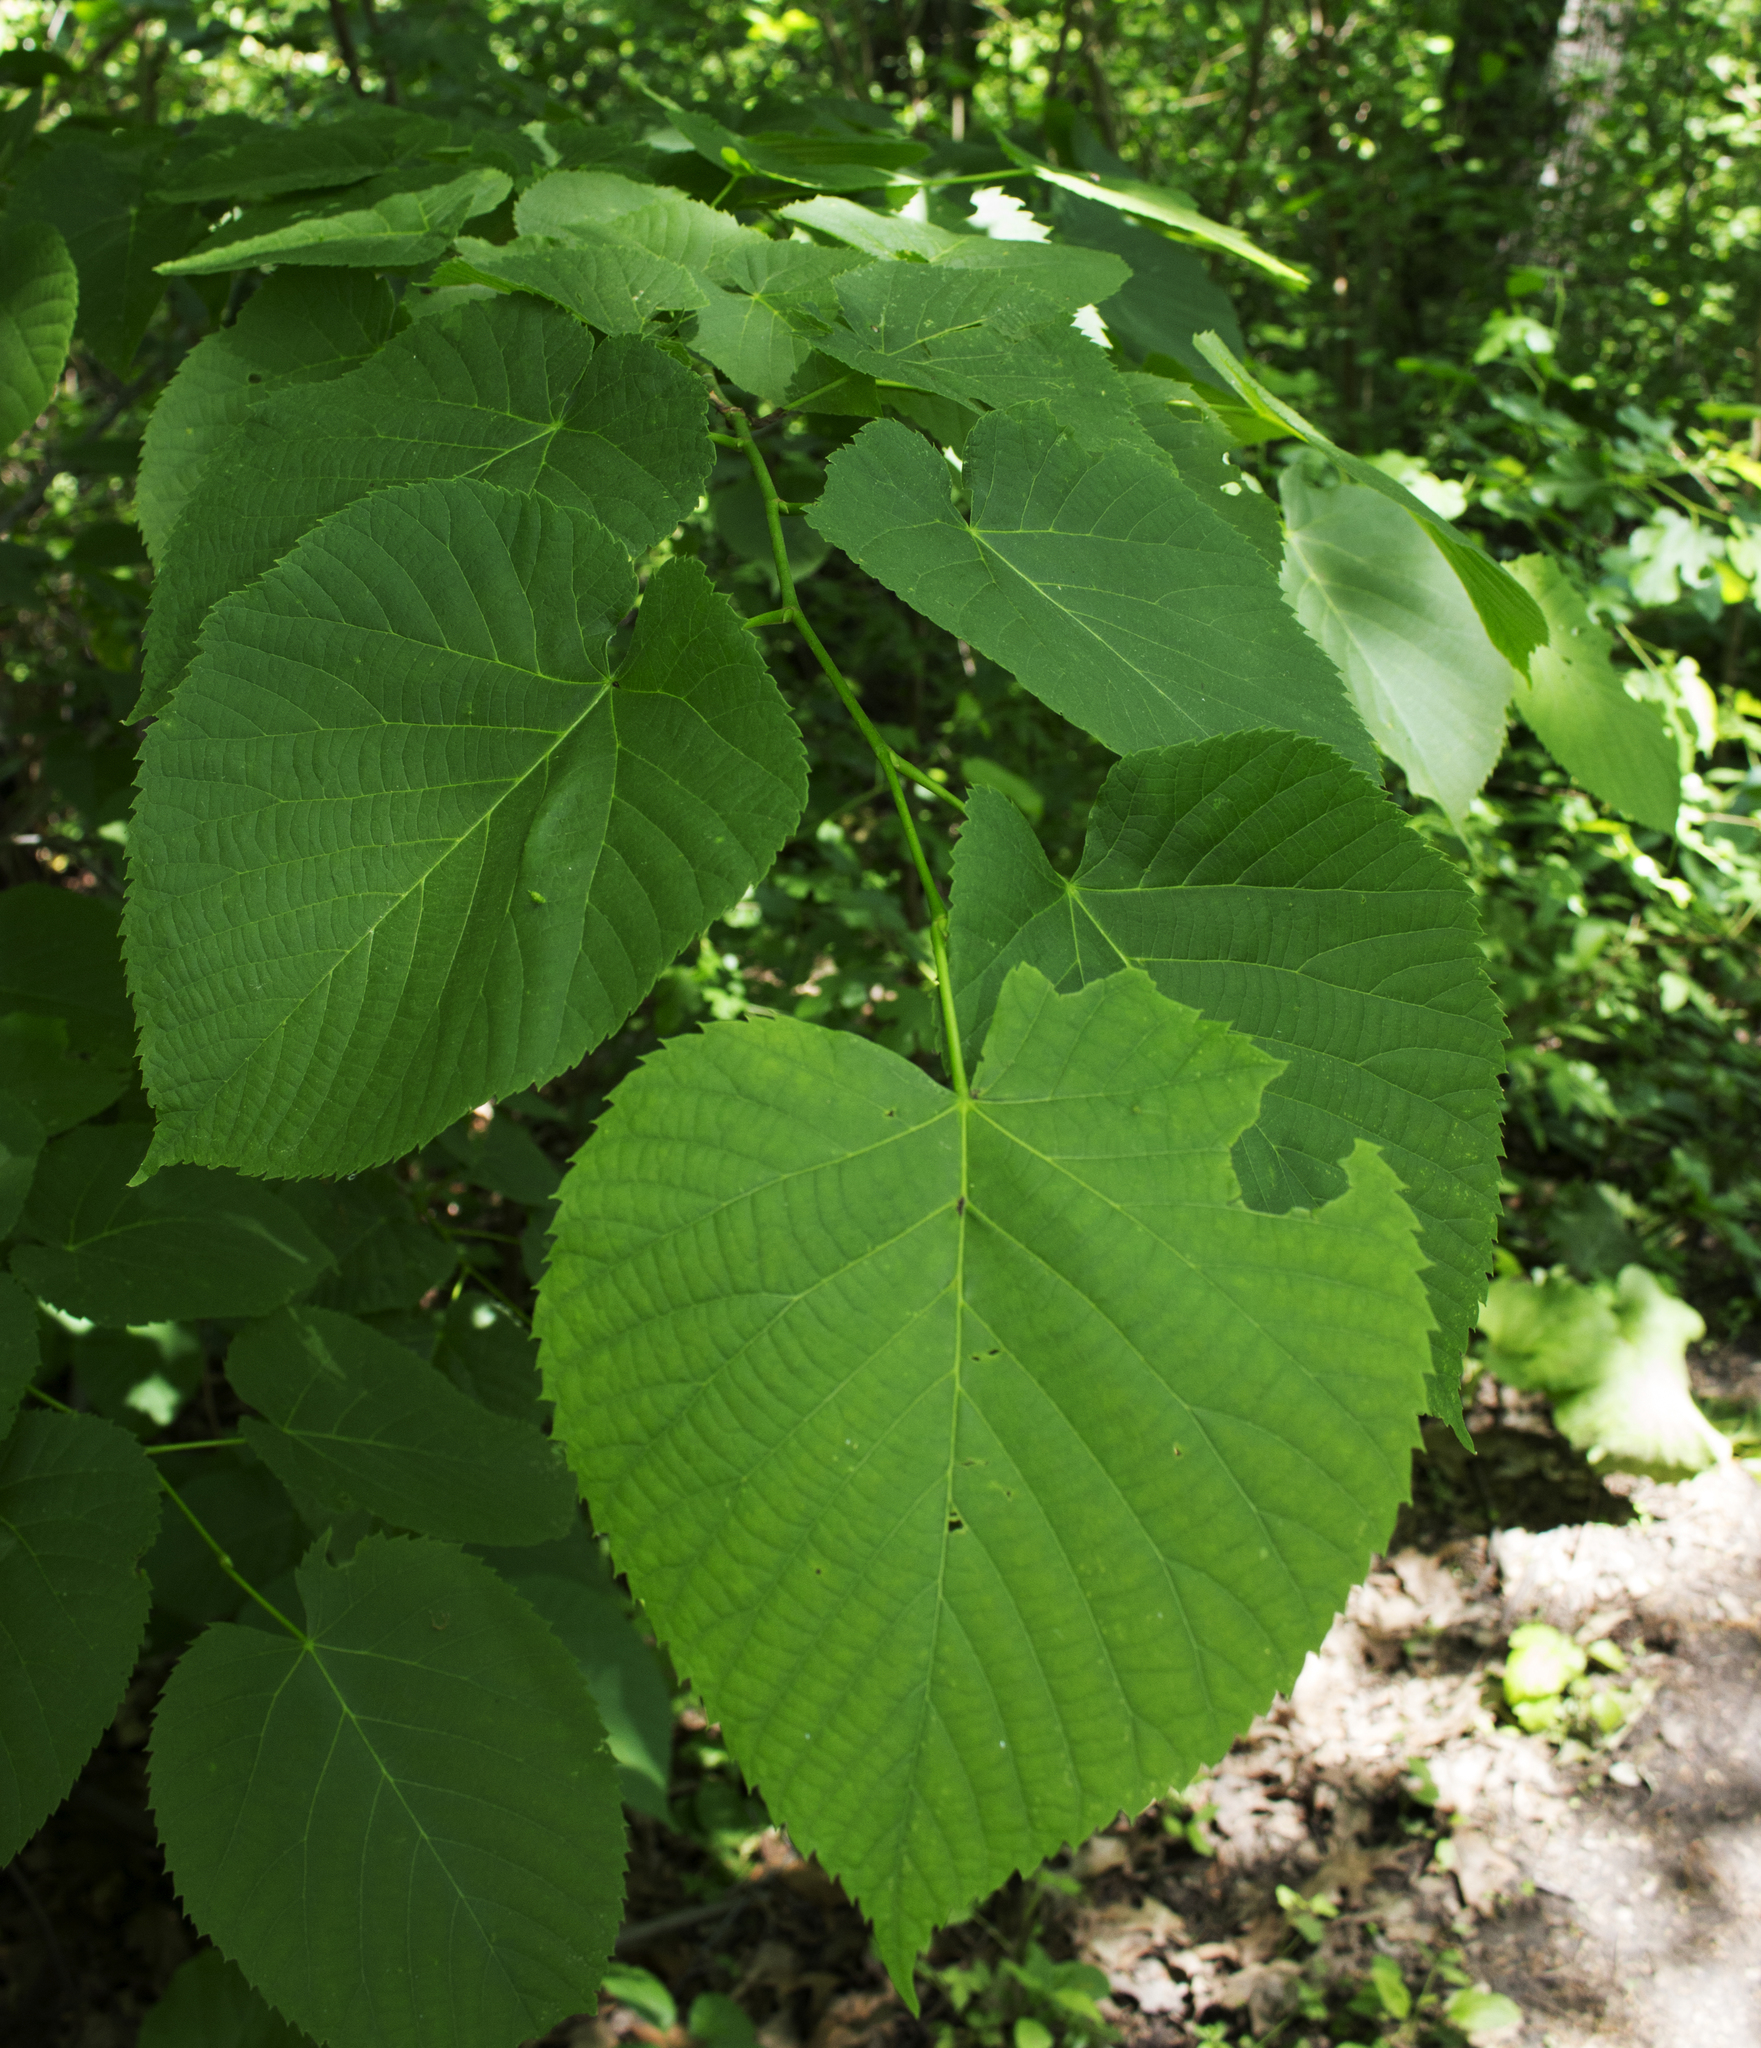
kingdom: Plantae
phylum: Tracheophyta
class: Magnoliopsida
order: Malvales
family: Malvaceae
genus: Tilia
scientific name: Tilia americana
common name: Basswood
